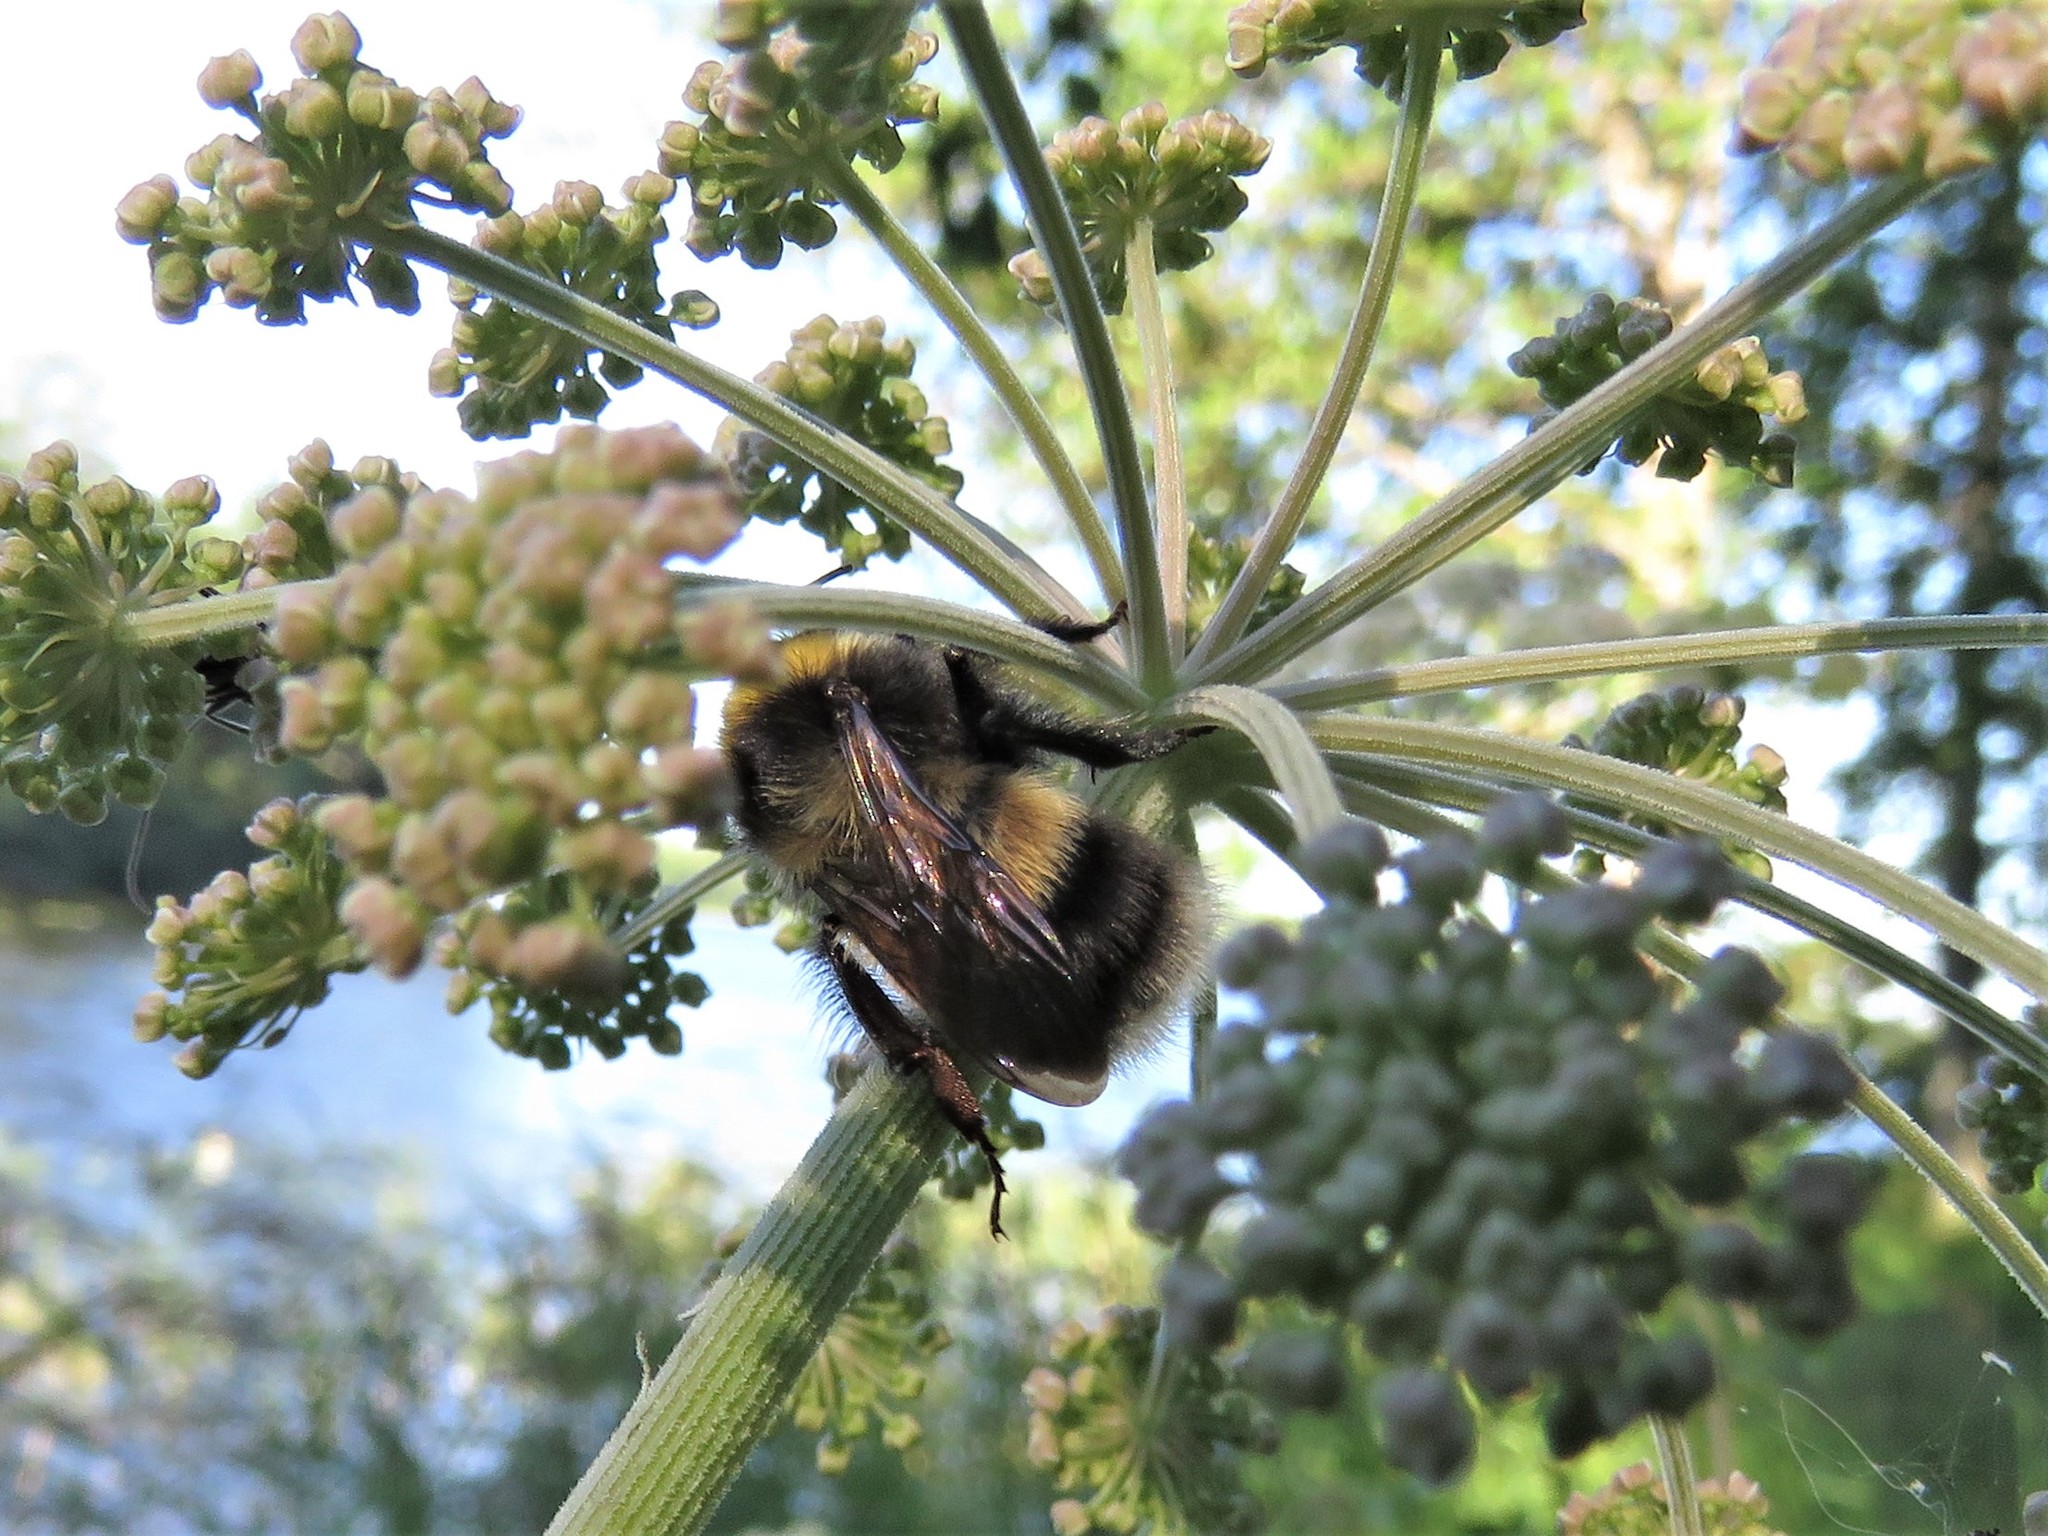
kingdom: Animalia
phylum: Arthropoda
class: Insecta
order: Hymenoptera
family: Apidae
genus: Bombus
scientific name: Bombus sporadicus
